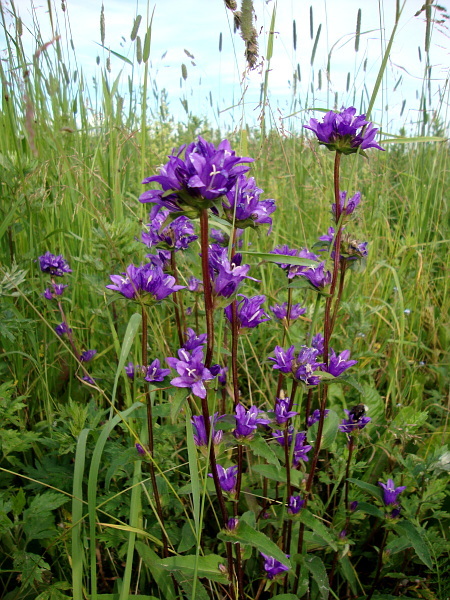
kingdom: Plantae
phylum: Tracheophyta
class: Magnoliopsida
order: Asterales
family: Campanulaceae
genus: Campanula
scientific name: Campanula glomerata
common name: Clustered bellflower
